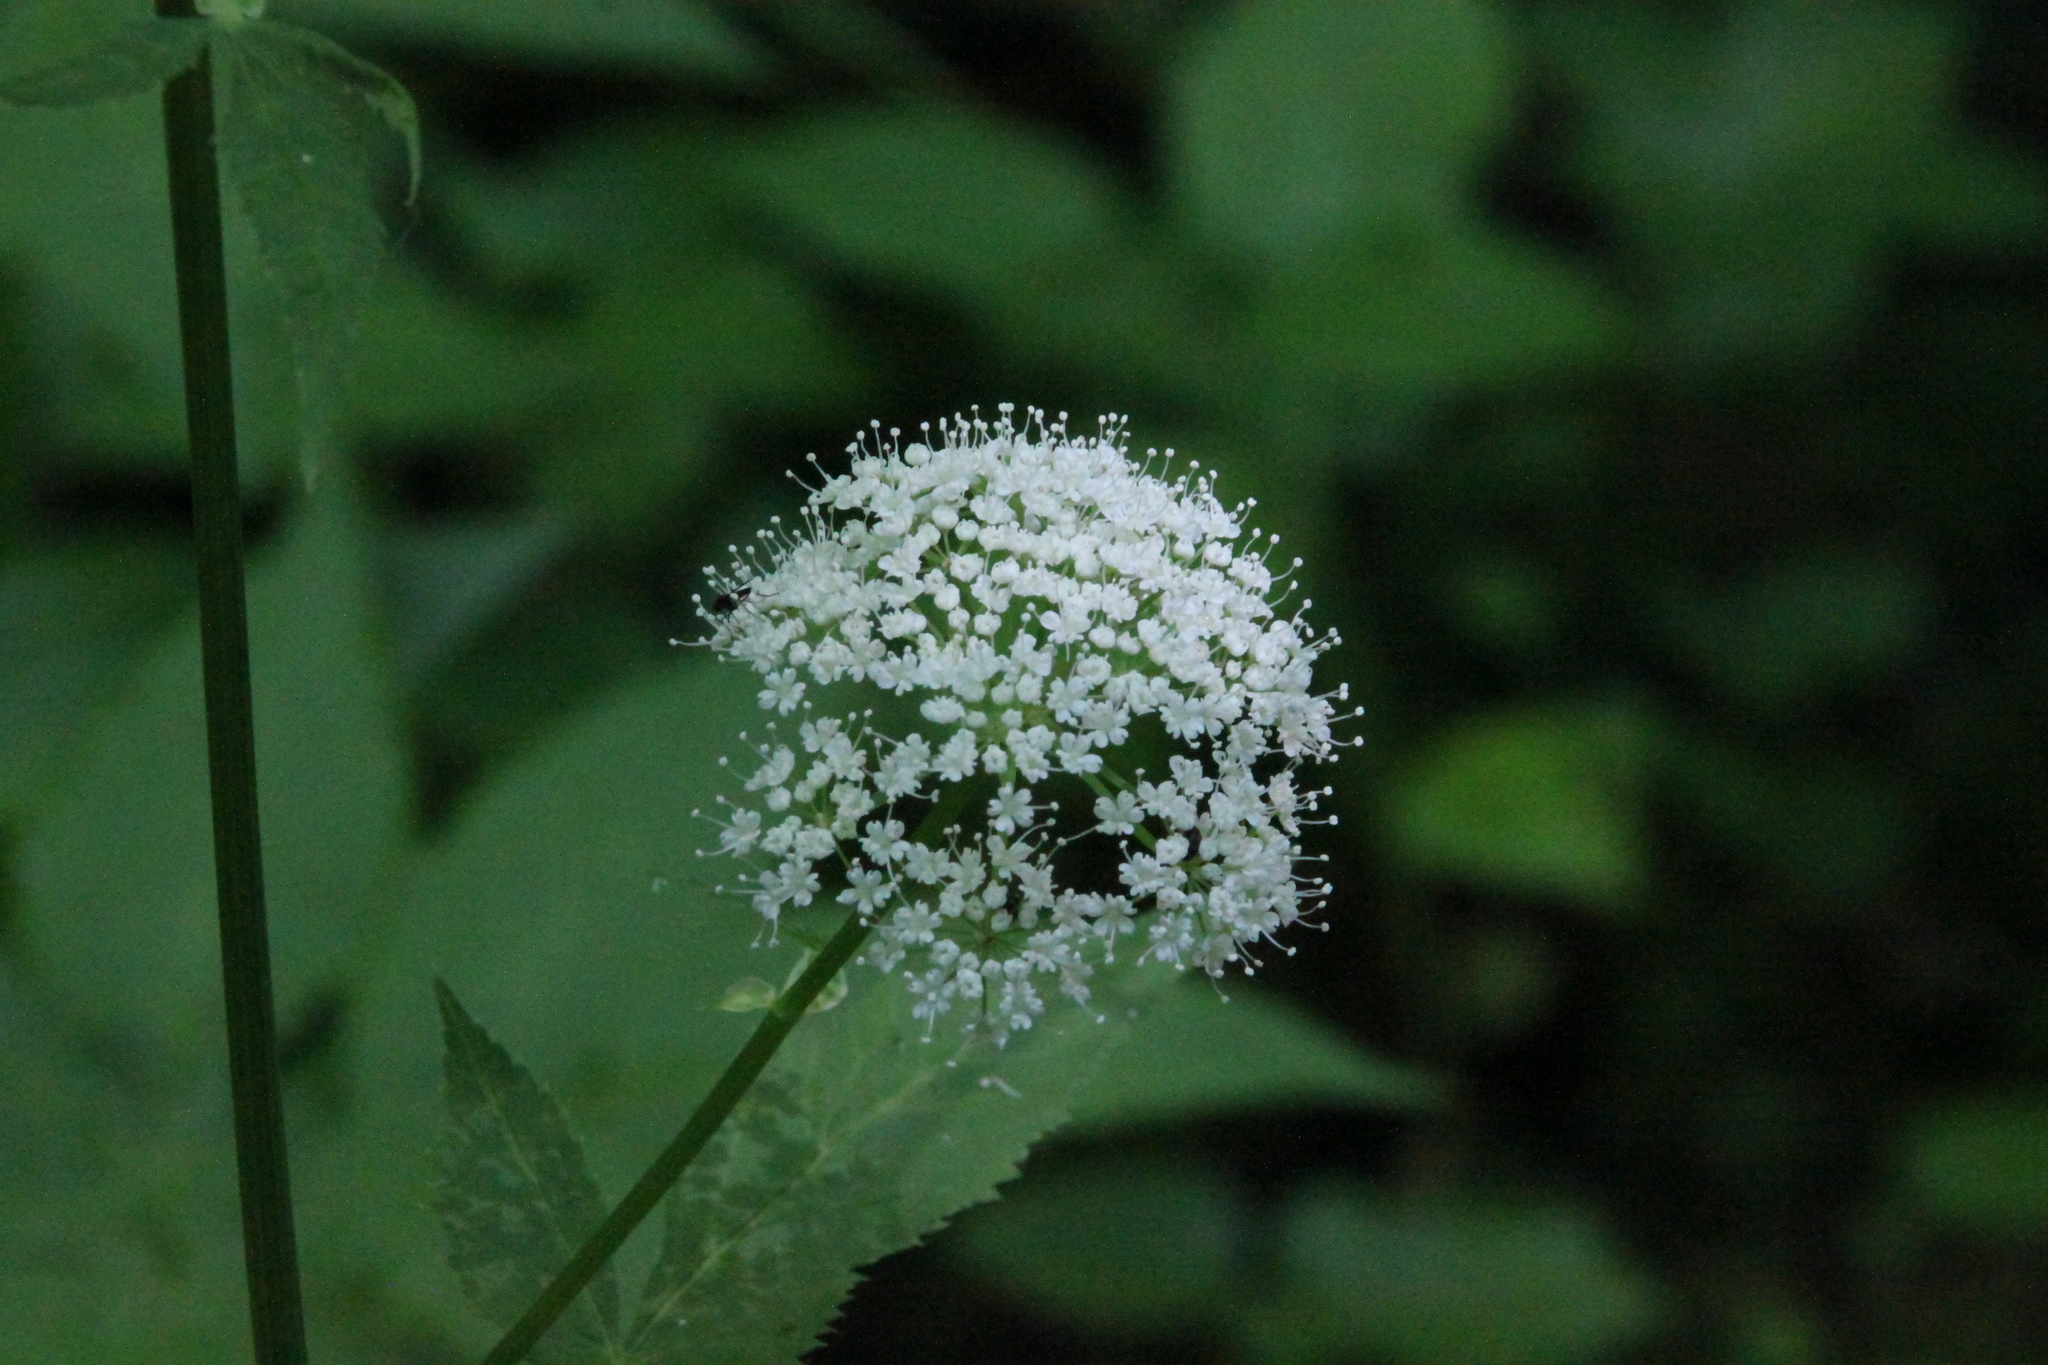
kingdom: Plantae
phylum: Tracheophyta
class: Magnoliopsida
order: Apiales
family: Apiaceae
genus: Aegopodium
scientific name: Aegopodium podagraria
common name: Ground-elder
